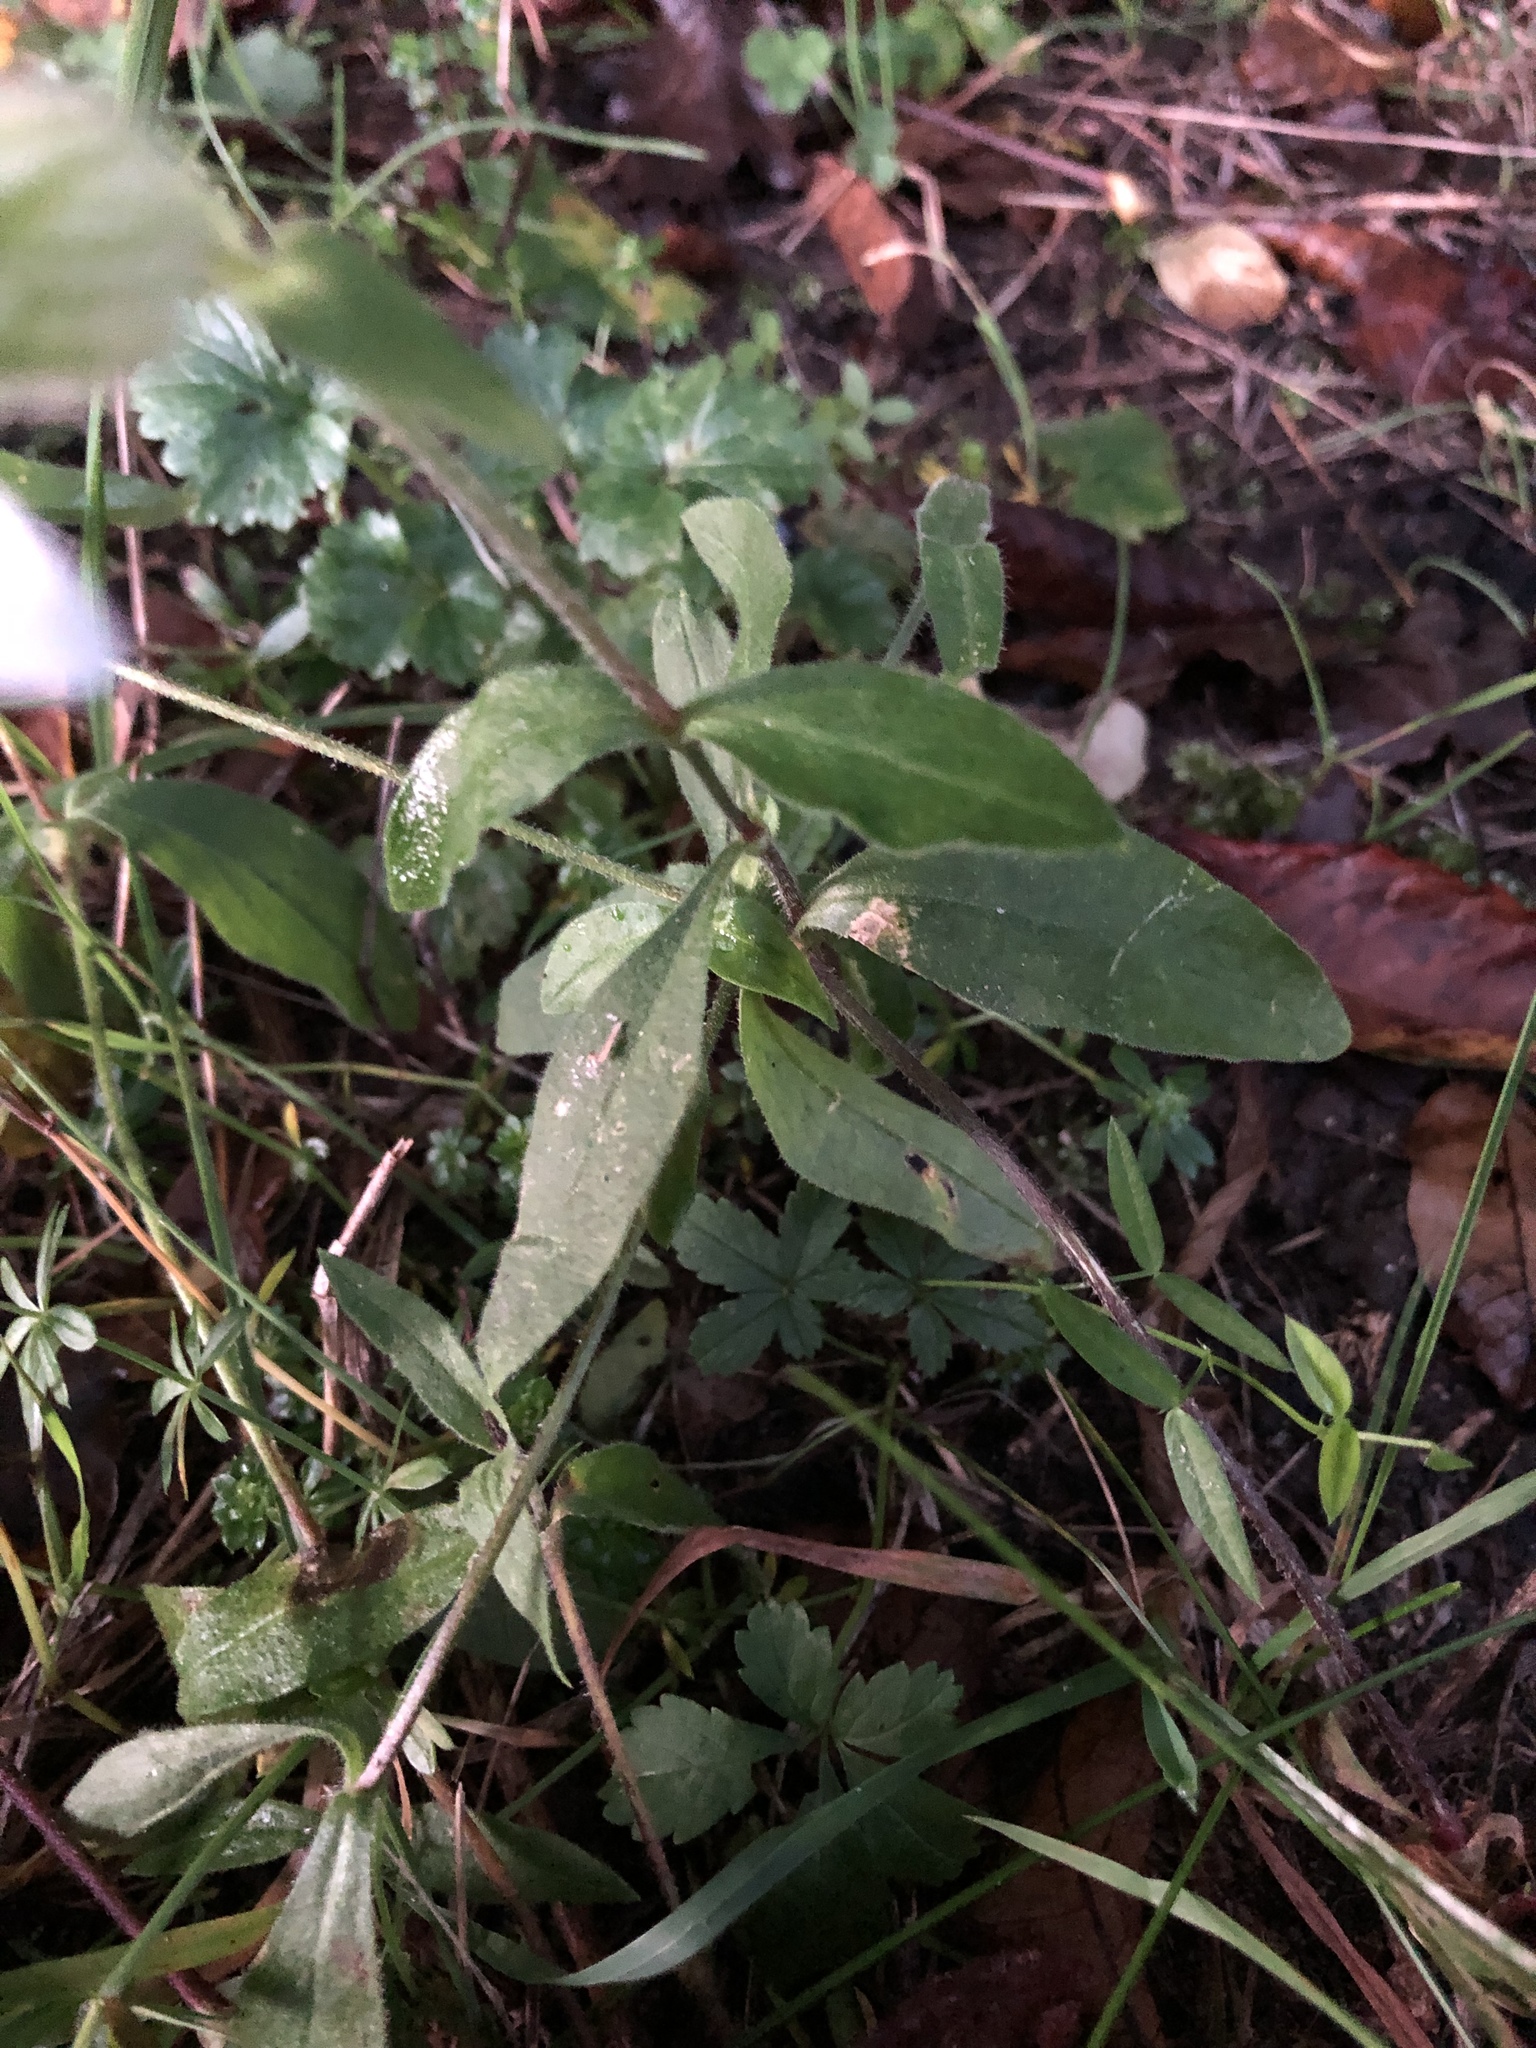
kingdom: Plantae
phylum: Tracheophyta
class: Magnoliopsida
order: Caryophyllales
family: Caryophyllaceae
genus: Silene
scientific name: Silene latifolia
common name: White campion
